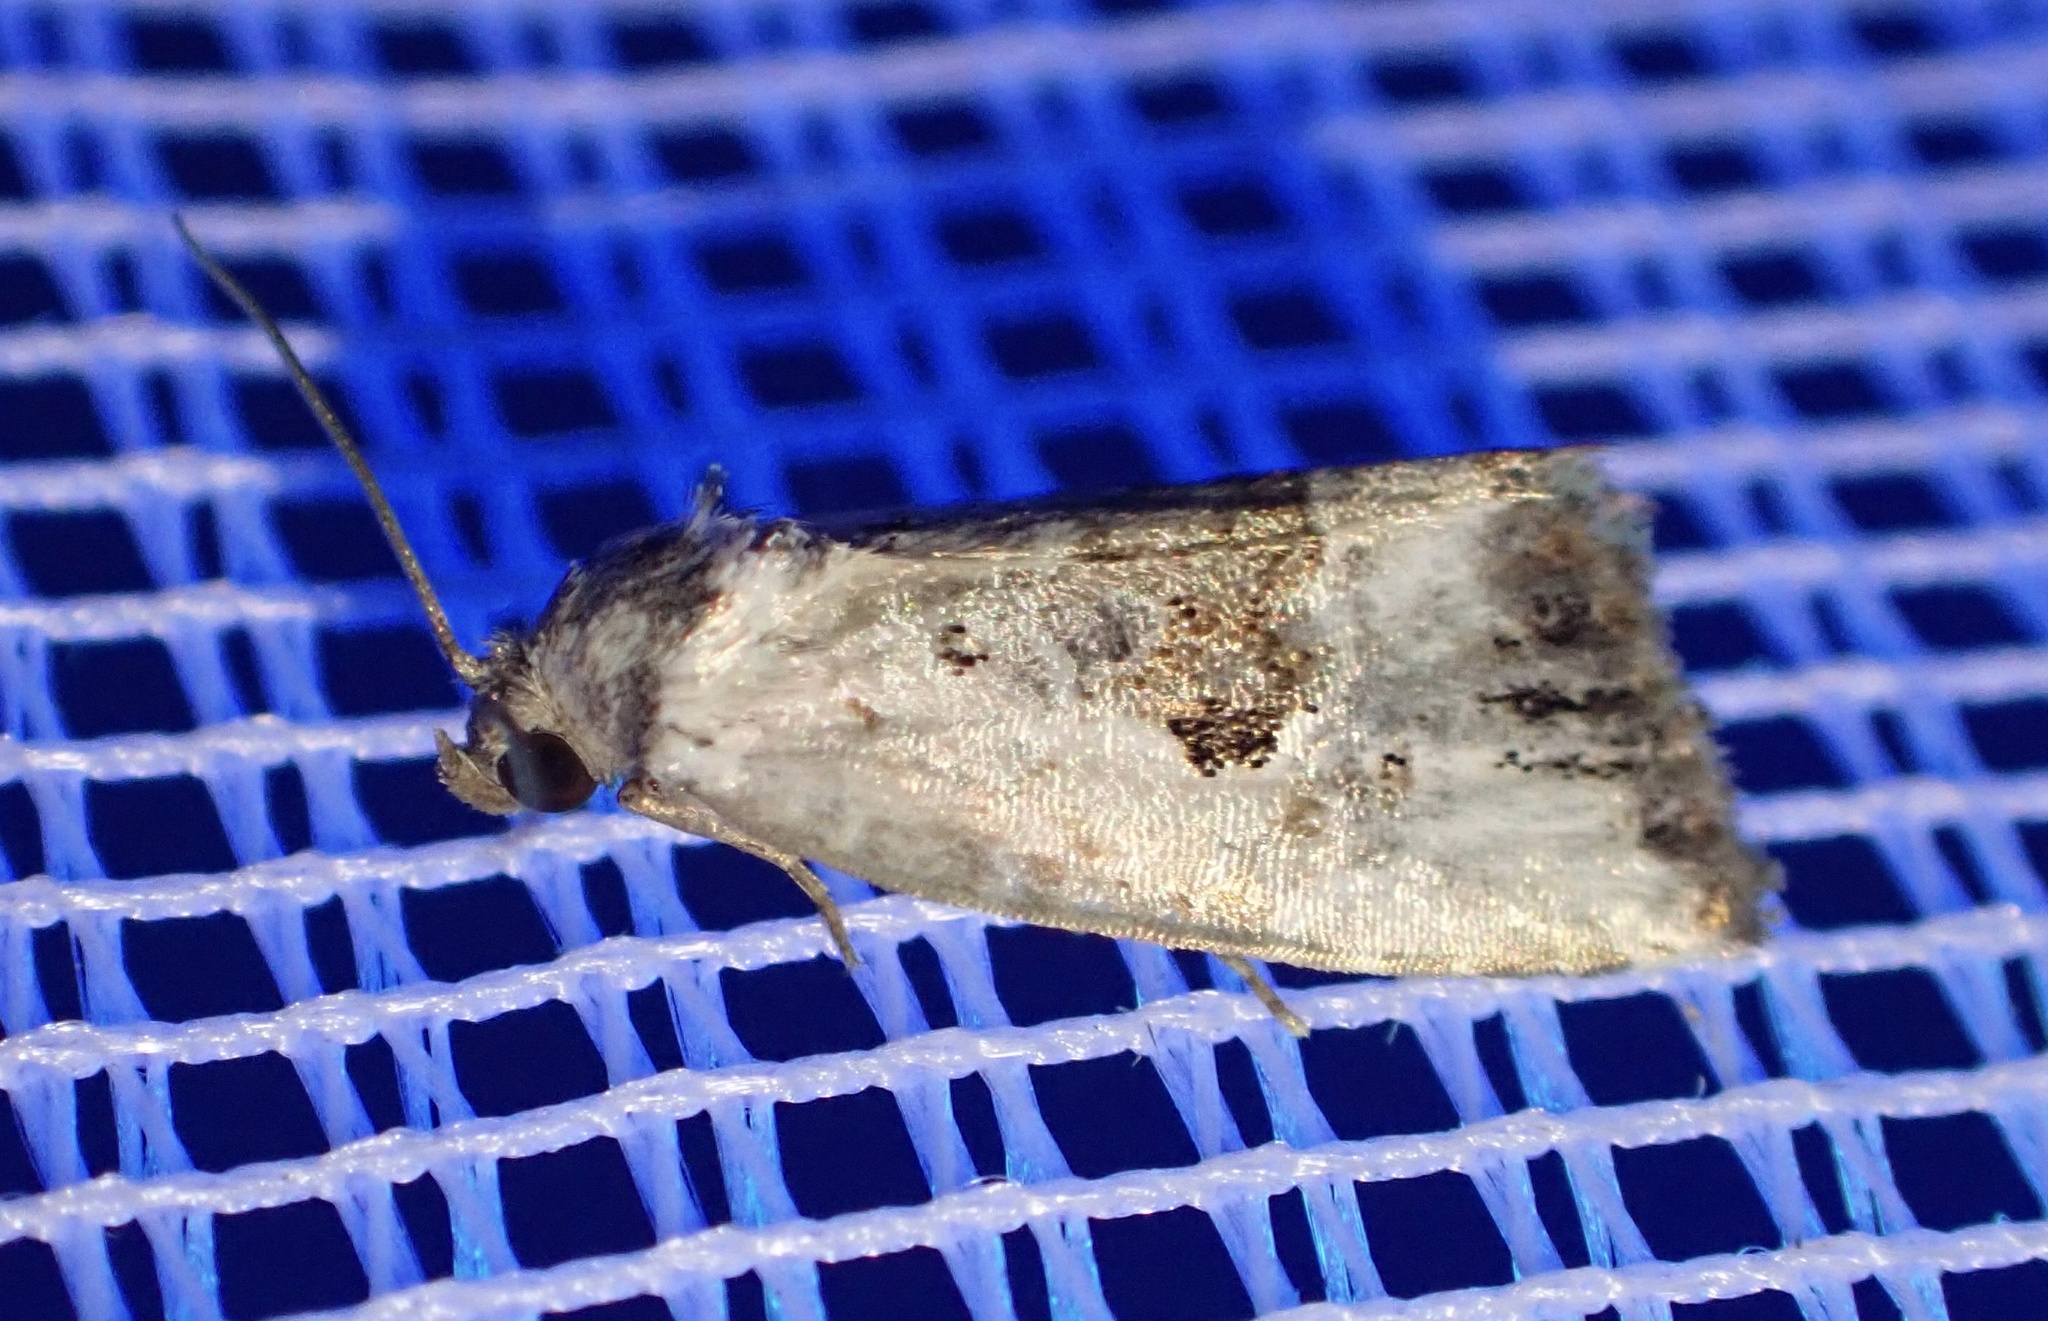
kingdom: Animalia
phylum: Arthropoda
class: Insecta
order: Lepidoptera
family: Noctuidae
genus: Elaphria
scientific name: Elaphria venustula
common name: Rosy marbled
